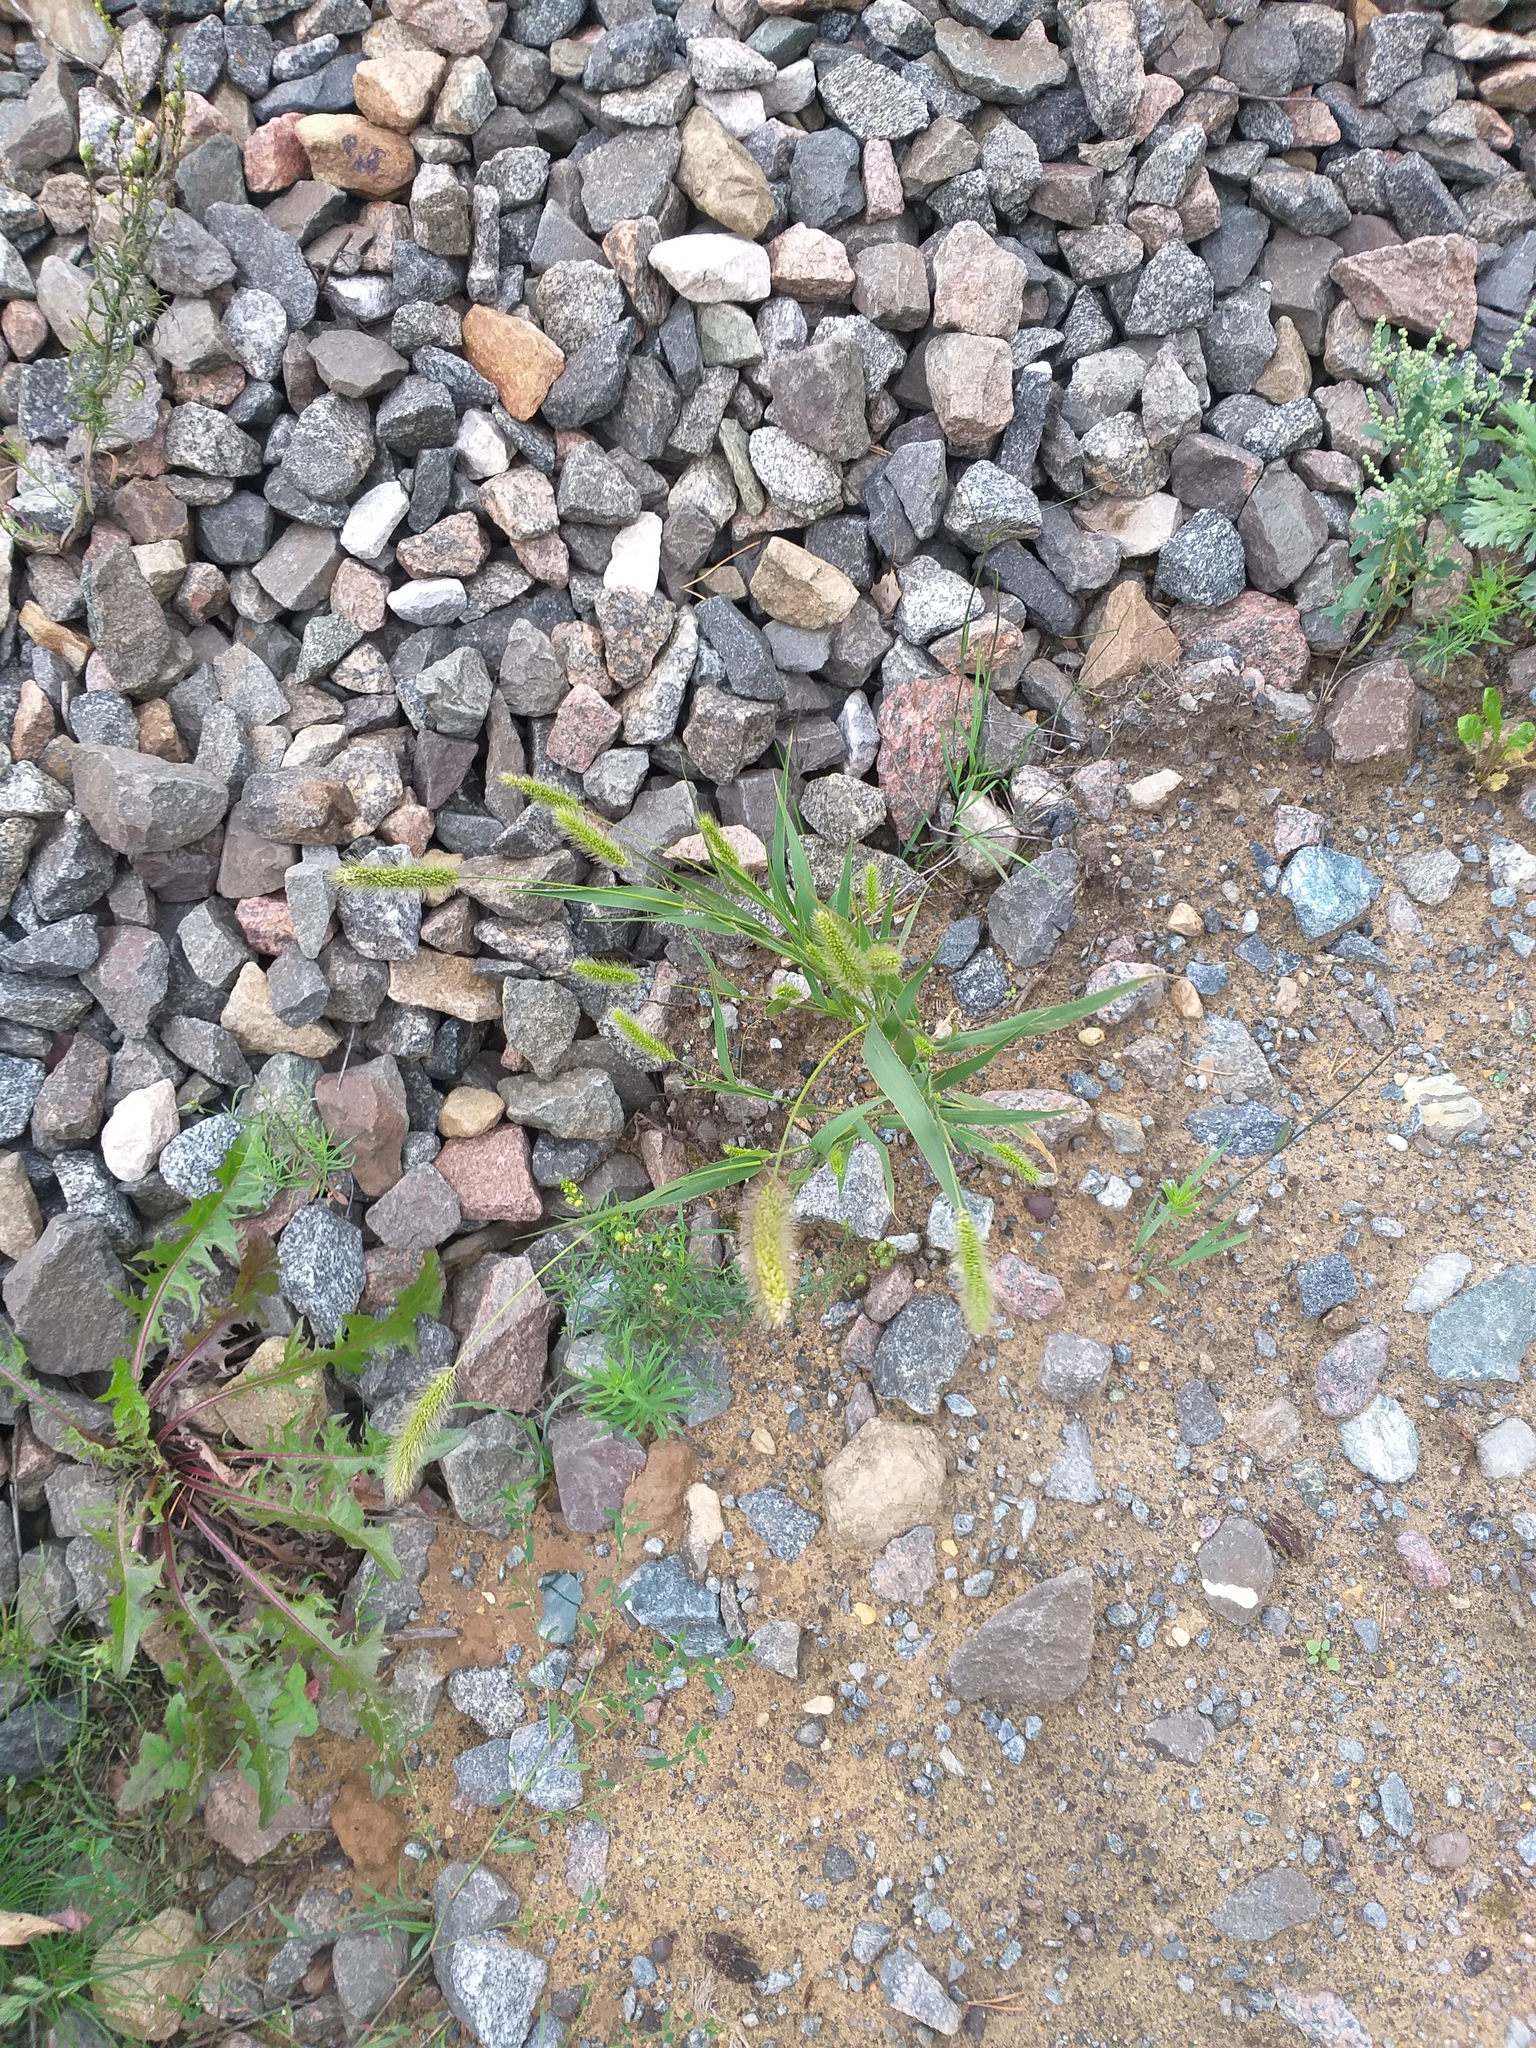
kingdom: Plantae
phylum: Tracheophyta
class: Liliopsida
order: Poales
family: Poaceae
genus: Setaria
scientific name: Setaria viridis
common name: Green bristlegrass
